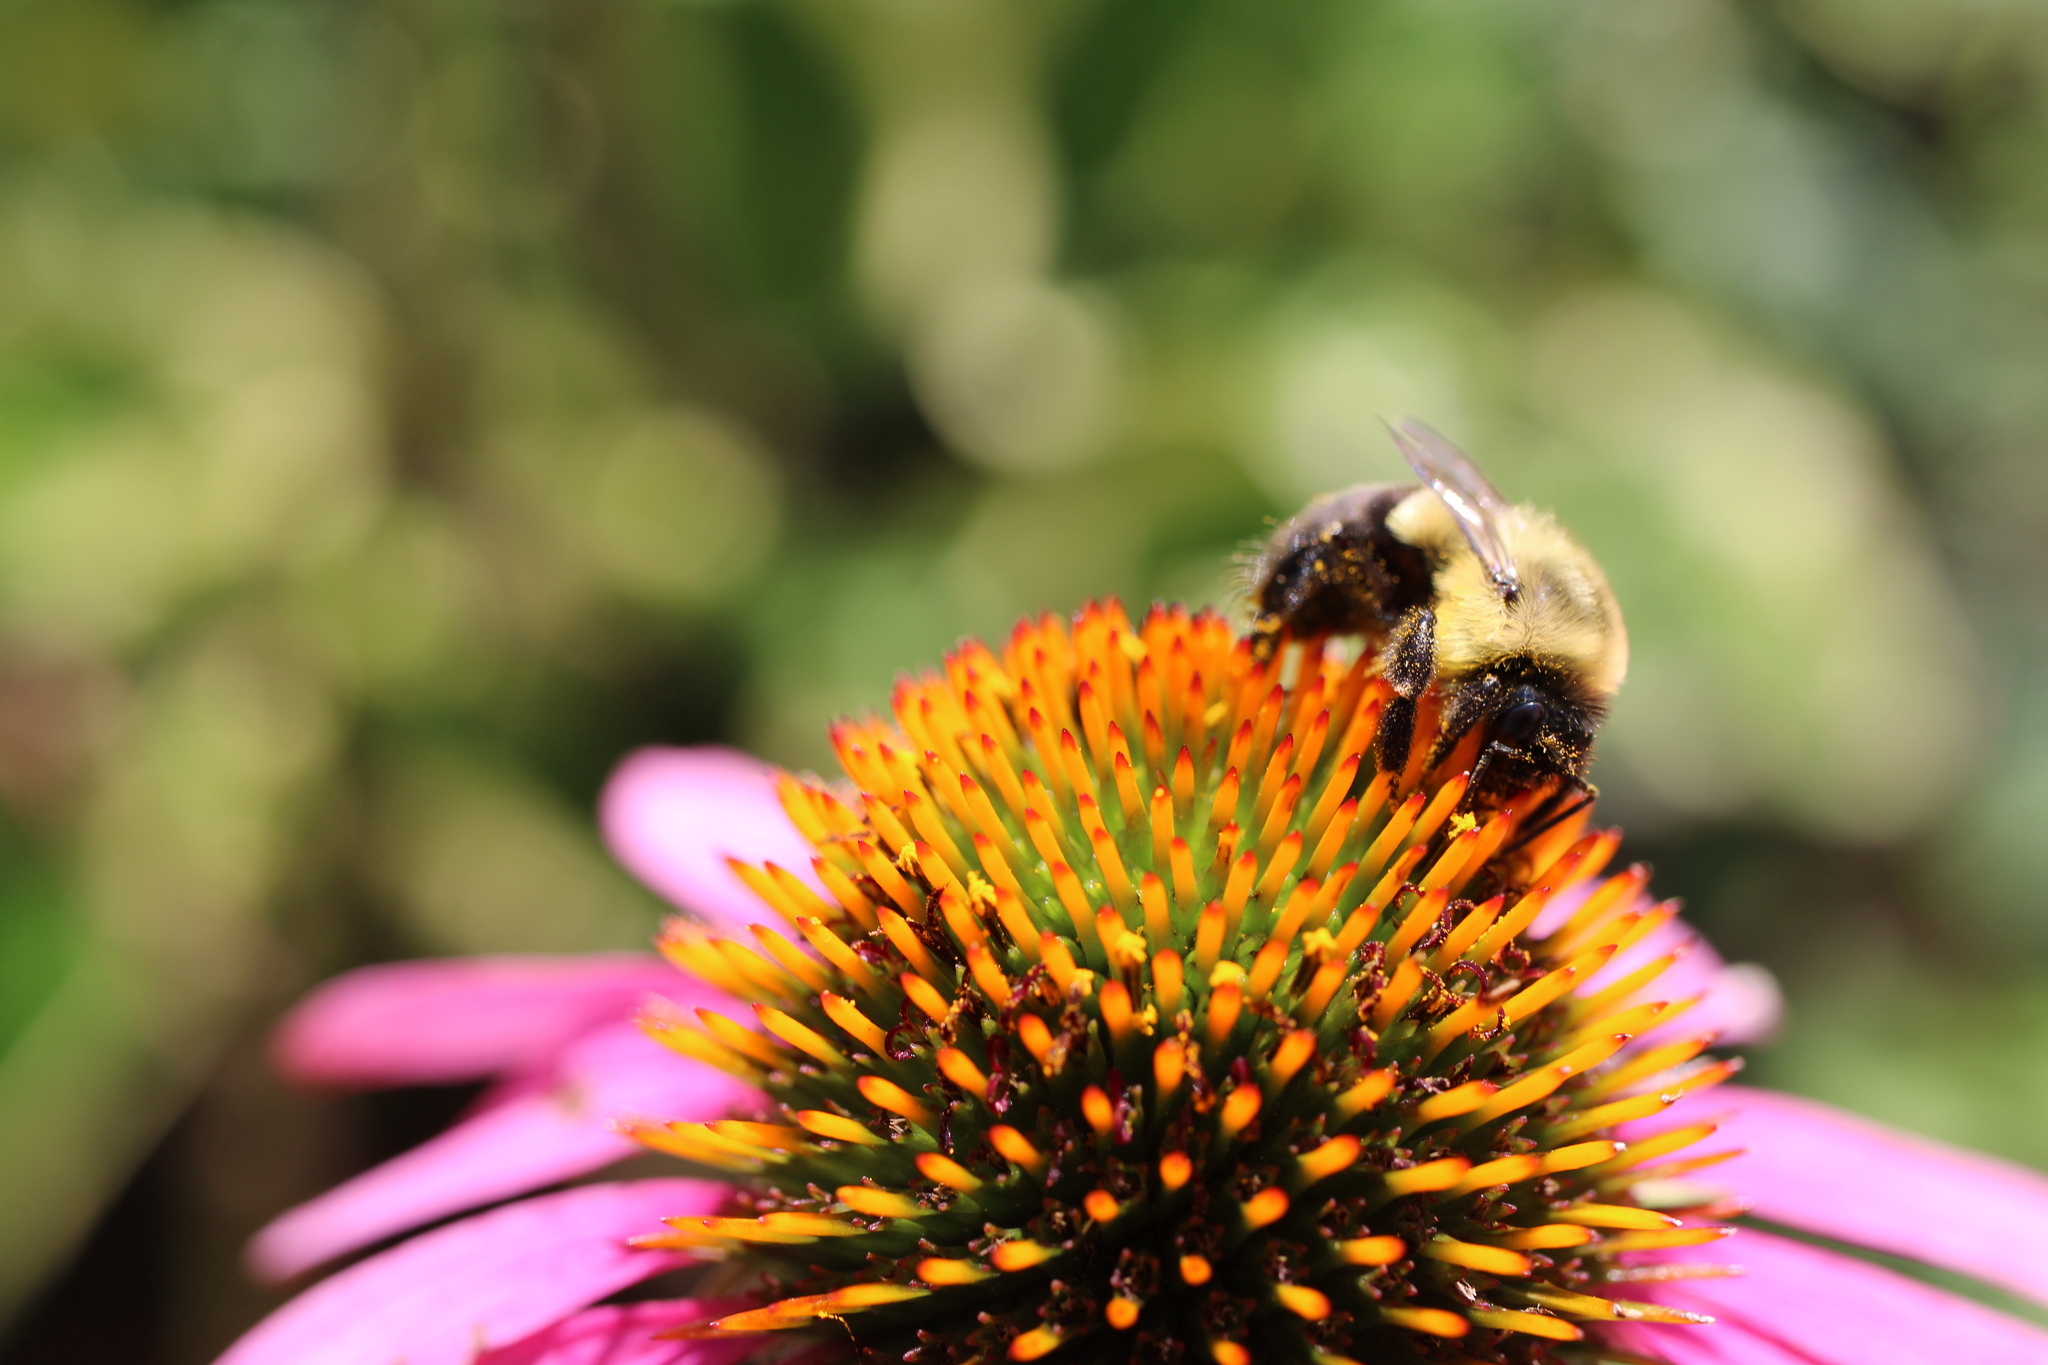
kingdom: Animalia
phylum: Arthropoda
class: Insecta
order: Hymenoptera
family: Apidae
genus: Bombus
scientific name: Bombus impatiens
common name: Common eastern bumble bee
